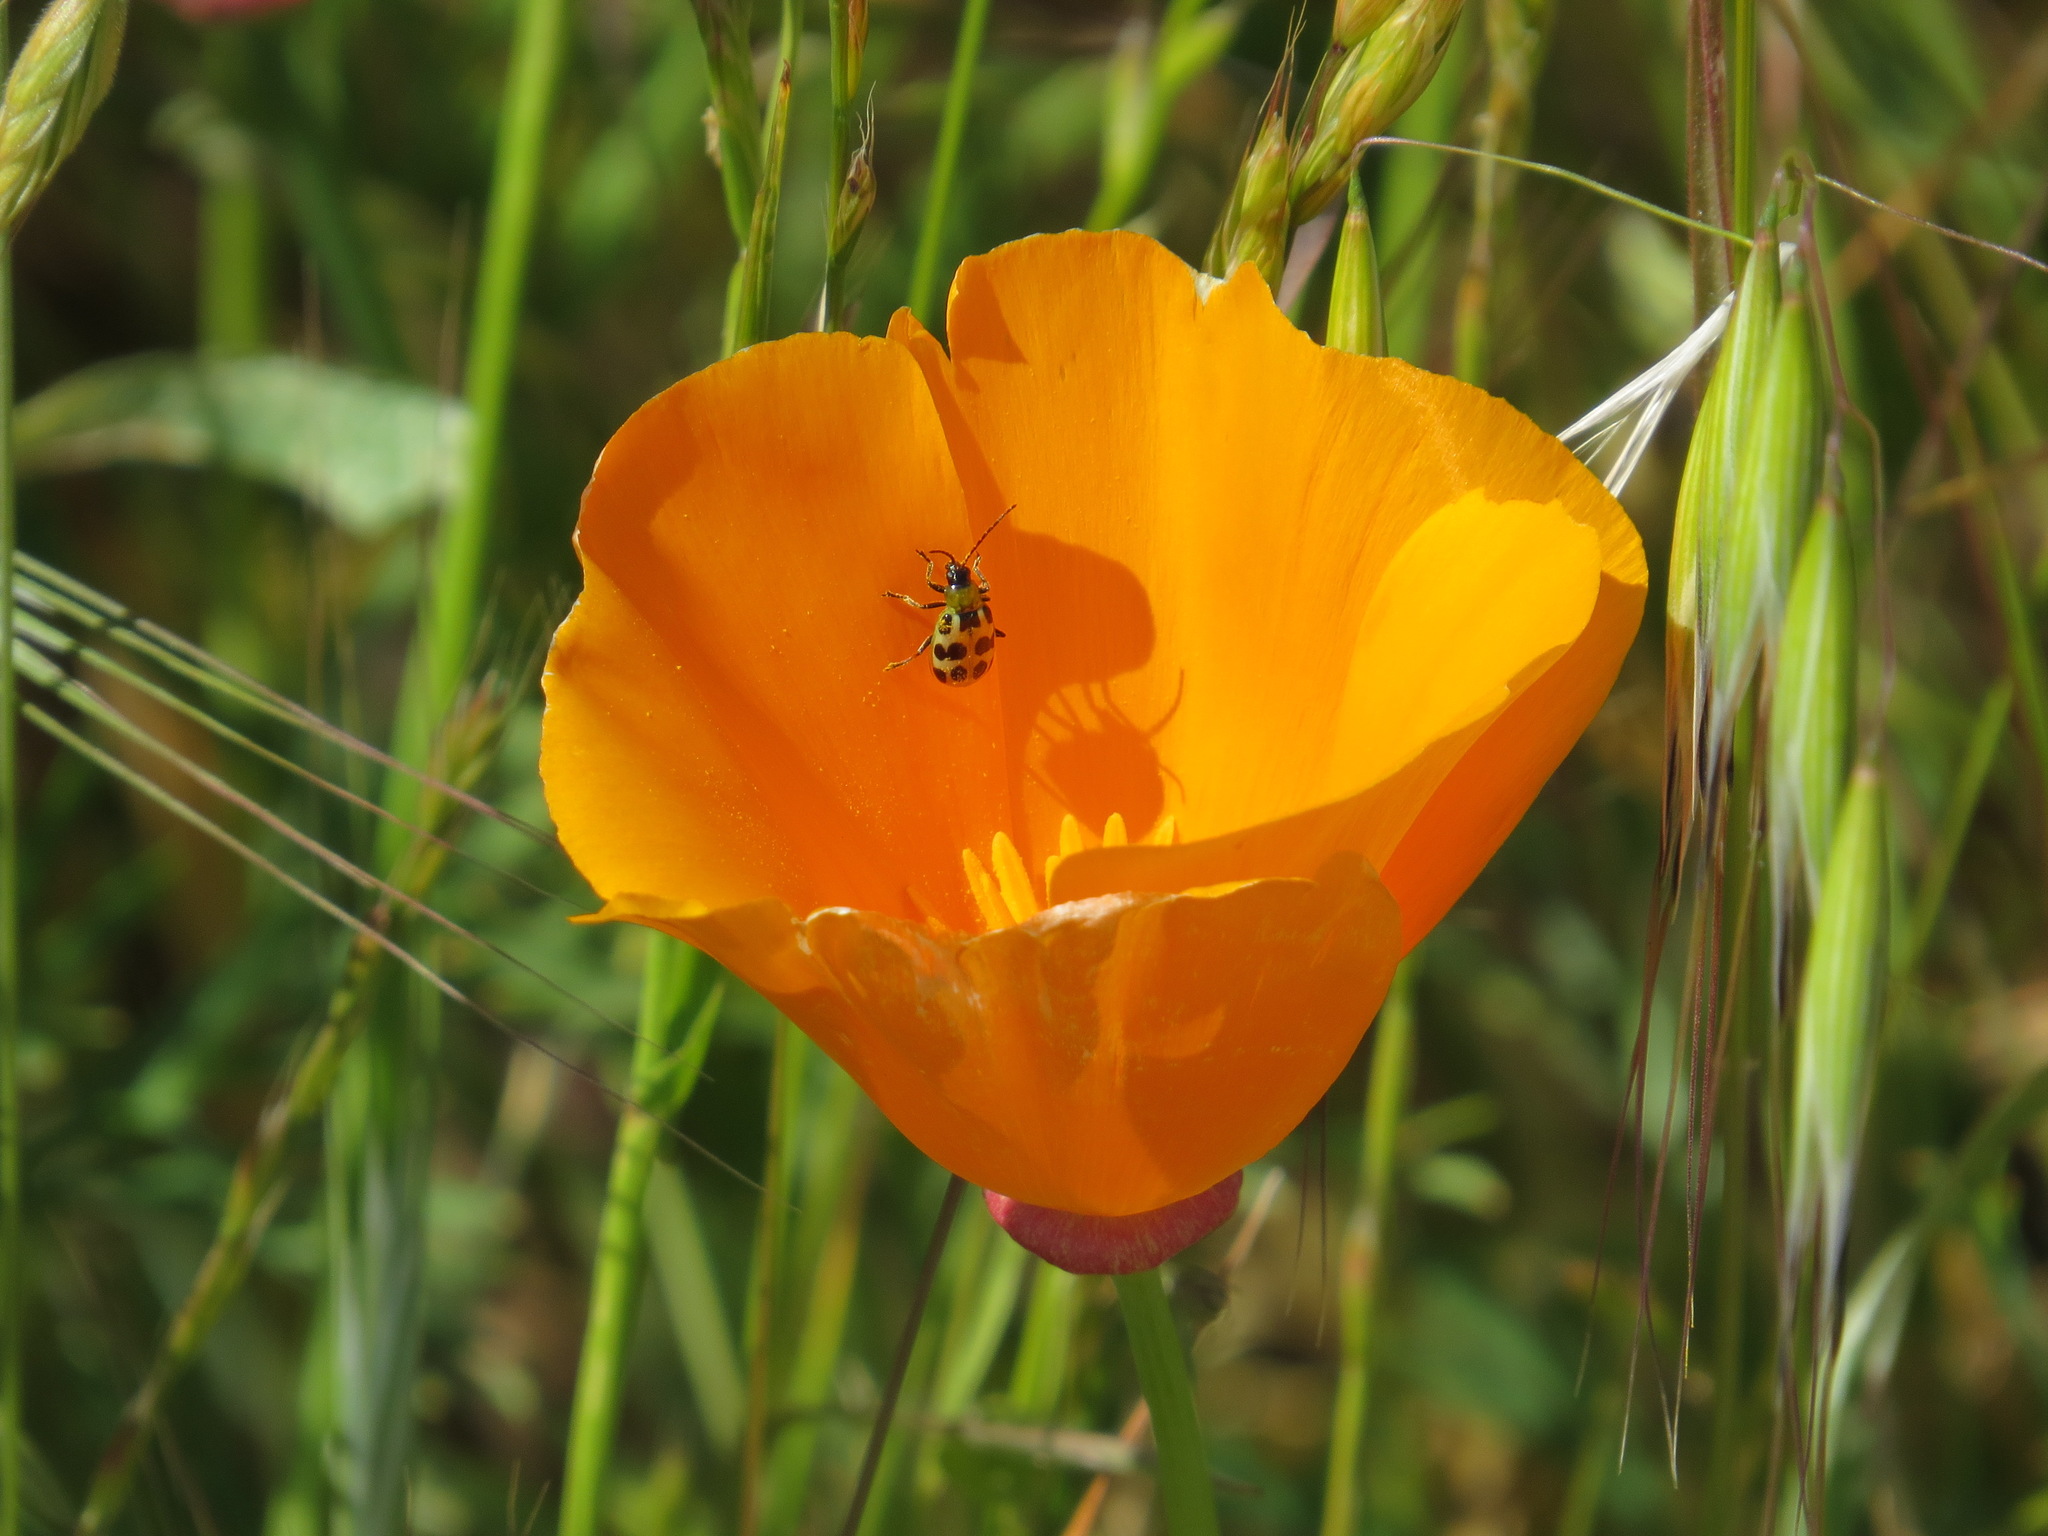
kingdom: Animalia
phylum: Arthropoda
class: Insecta
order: Coleoptera
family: Chrysomelidae
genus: Diabrotica
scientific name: Diabrotica undecimpunctata
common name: Spotted cucumber beetle
